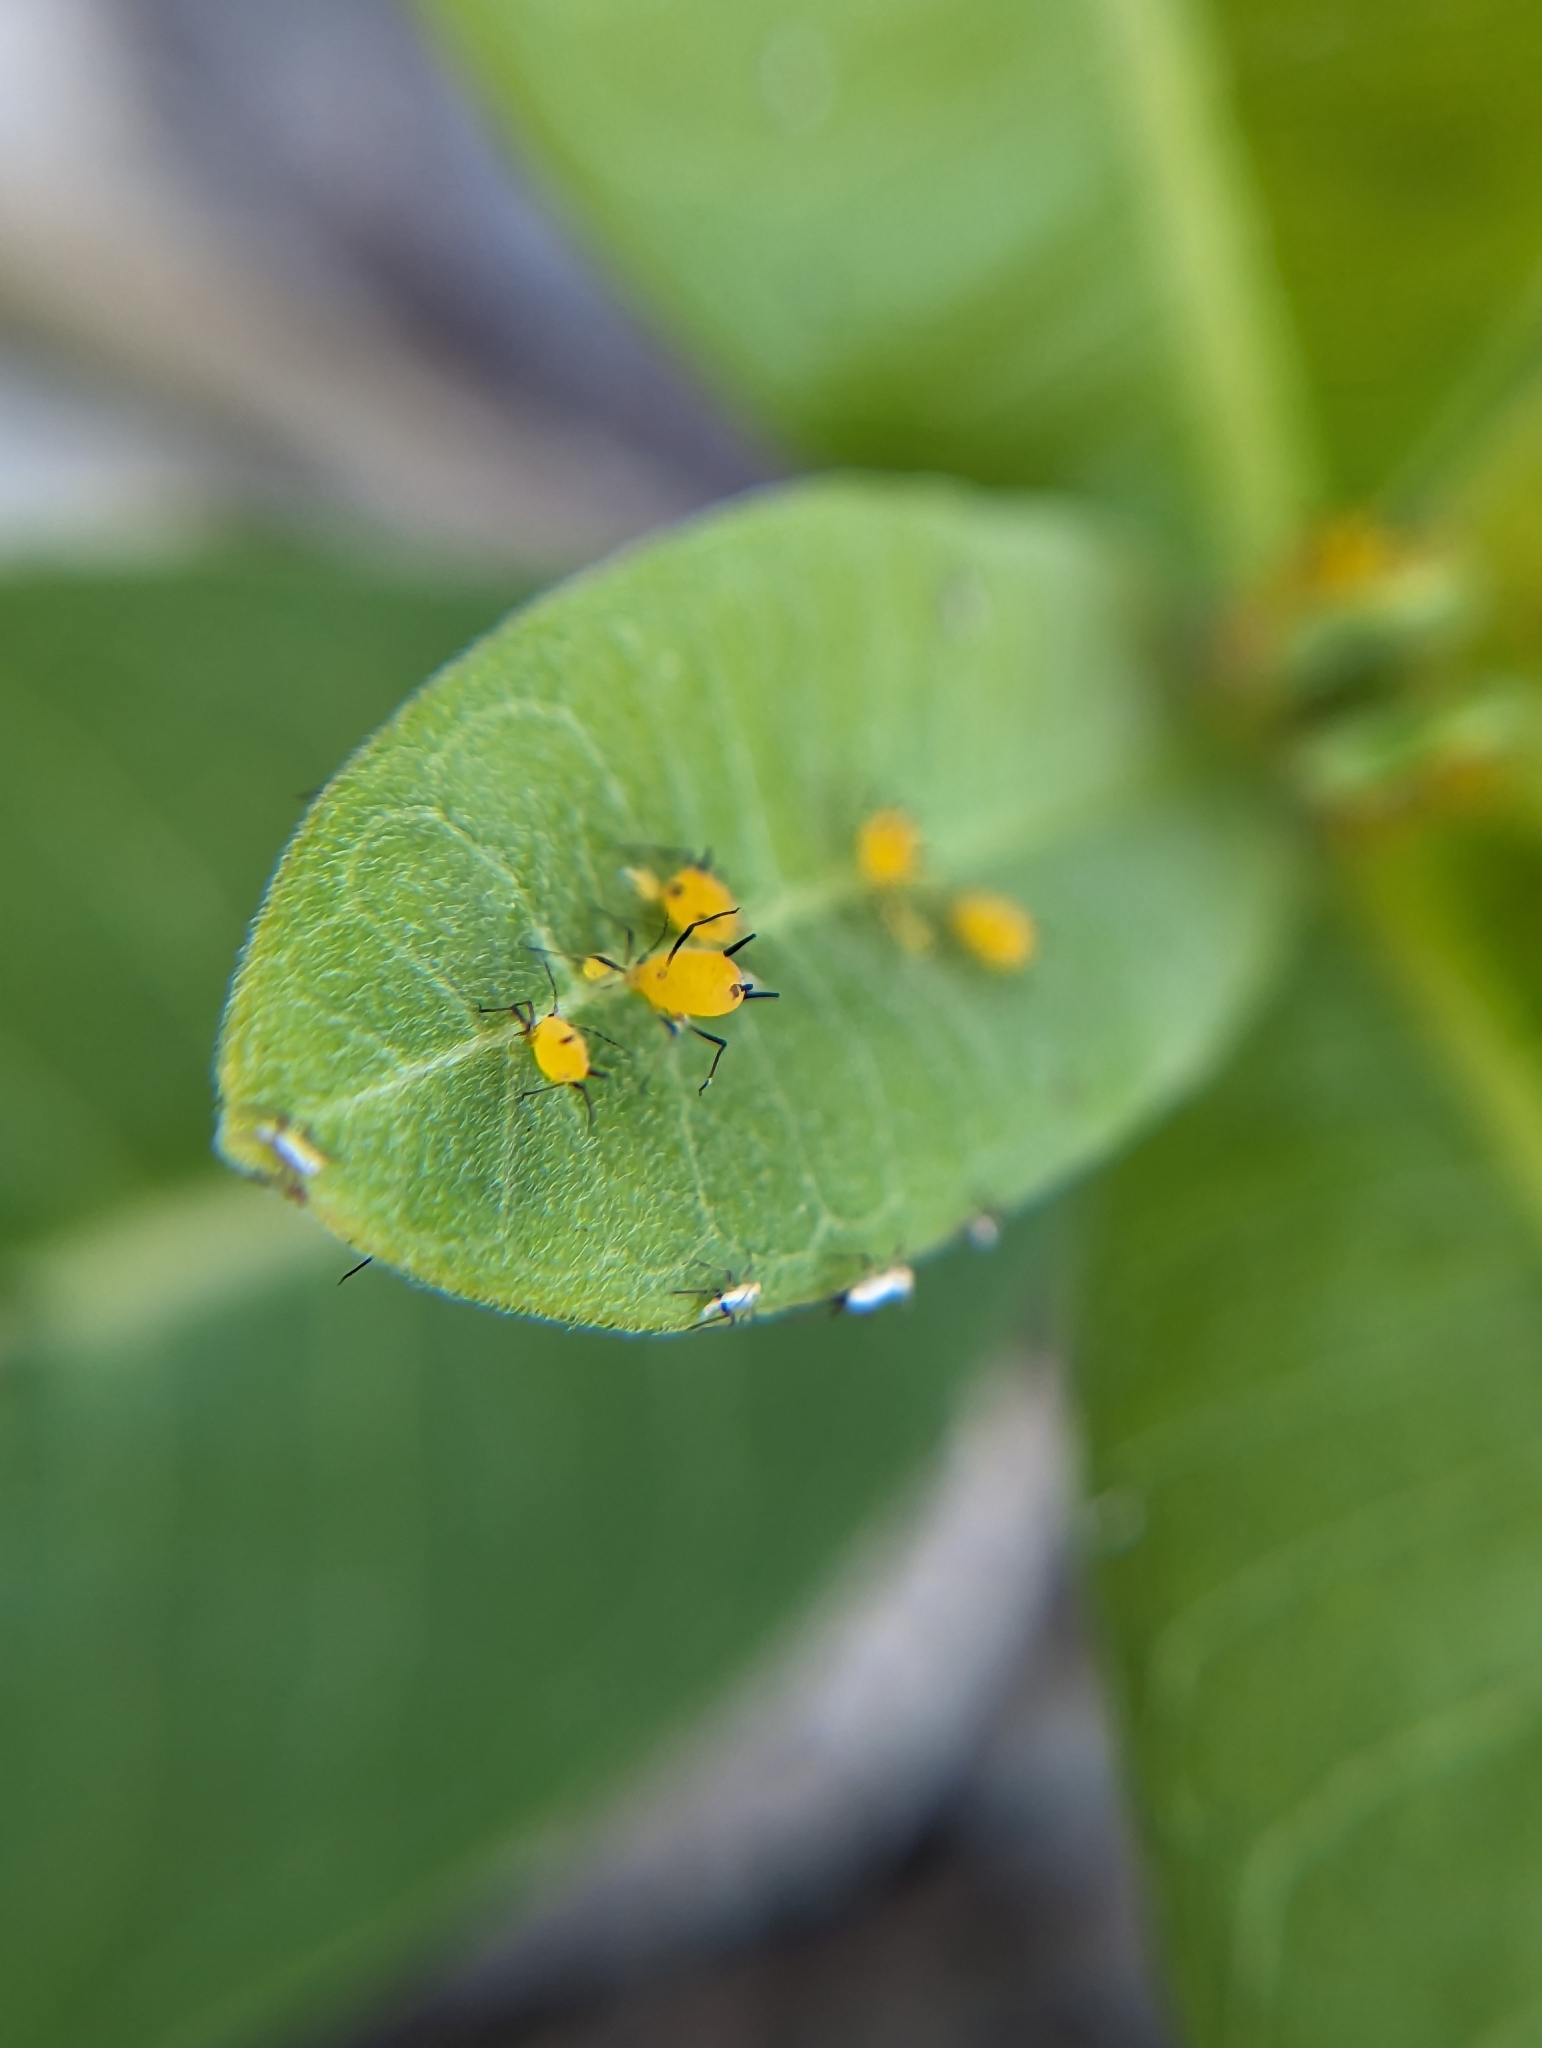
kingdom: Animalia
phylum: Arthropoda
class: Insecta
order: Hemiptera
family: Aphididae
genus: Aphis
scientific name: Aphis nerii
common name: Oleander aphid
